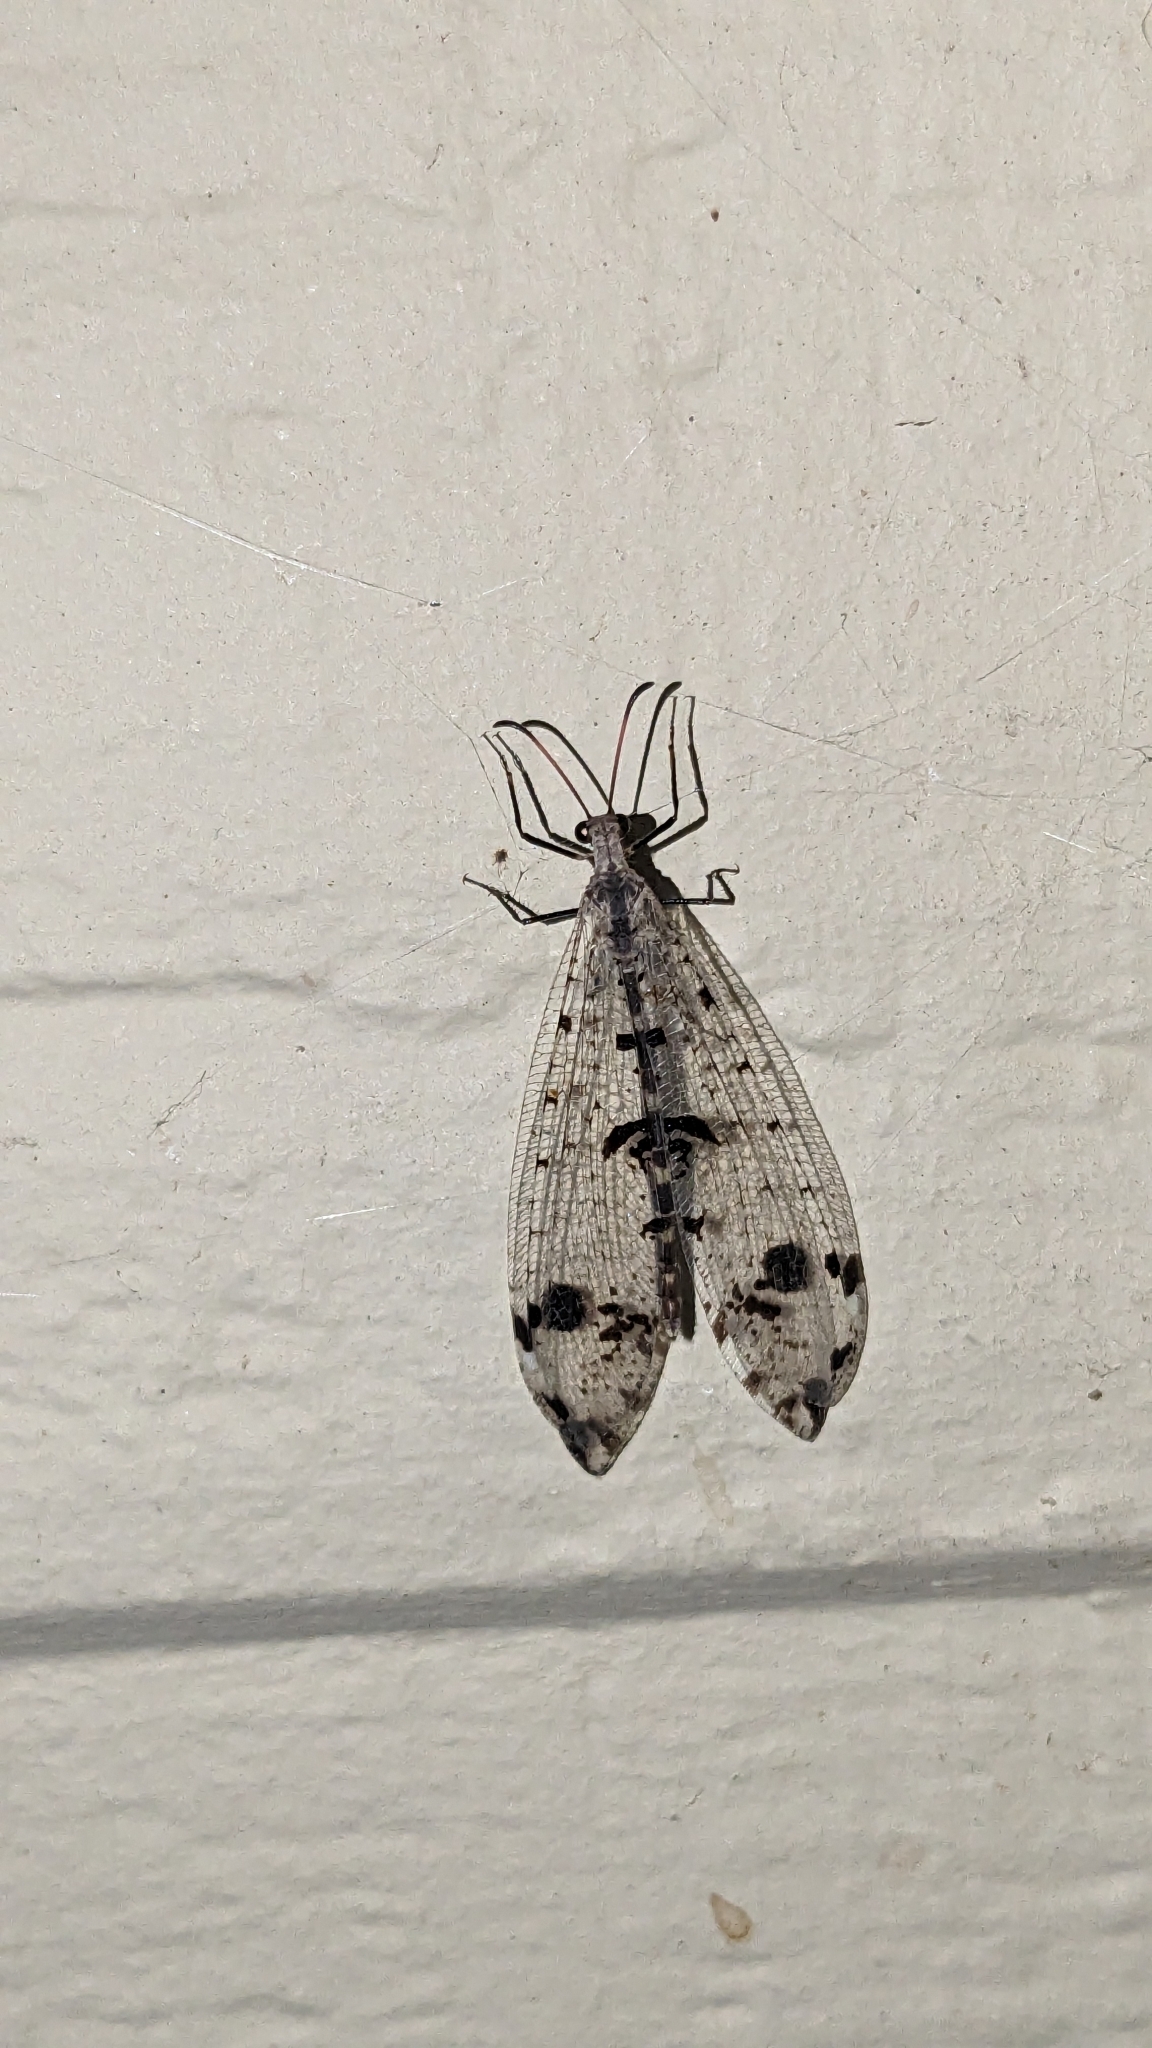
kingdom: Animalia
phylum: Arthropoda
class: Insecta
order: Neuroptera
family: Myrmeleontidae
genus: Dendroleon
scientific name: Dendroleon obsoletus
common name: Eastern spotted-winged antlion
